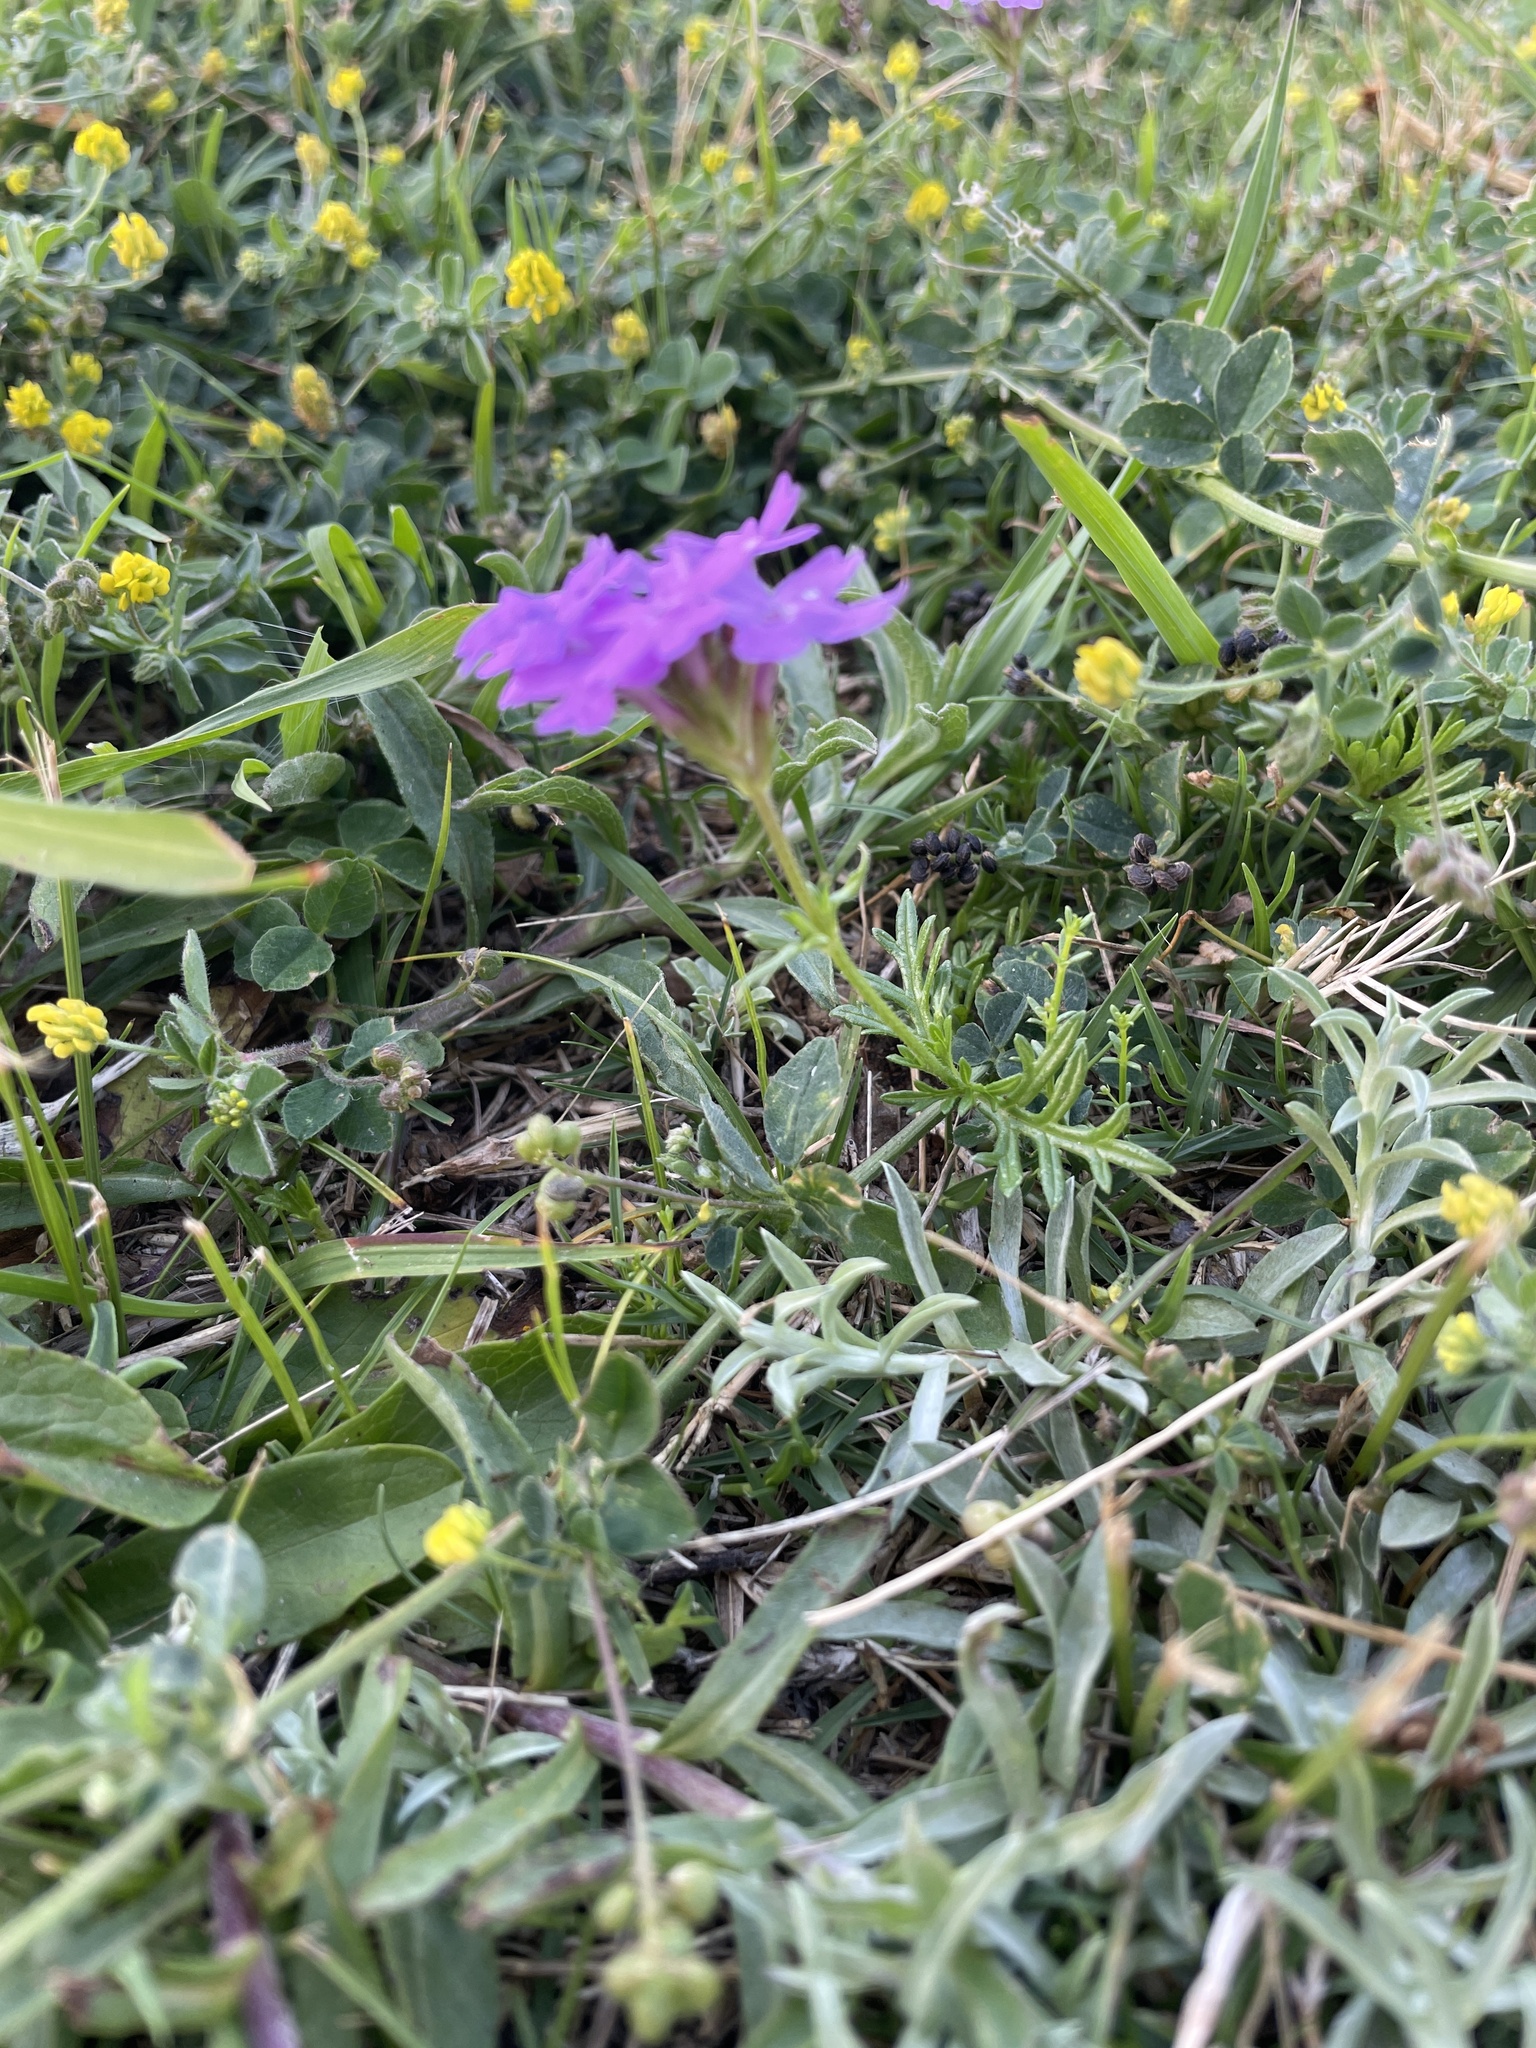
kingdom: Plantae
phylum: Tracheophyta
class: Magnoliopsida
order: Lamiales
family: Verbenaceae
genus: Verbena
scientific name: Verbena selloi
